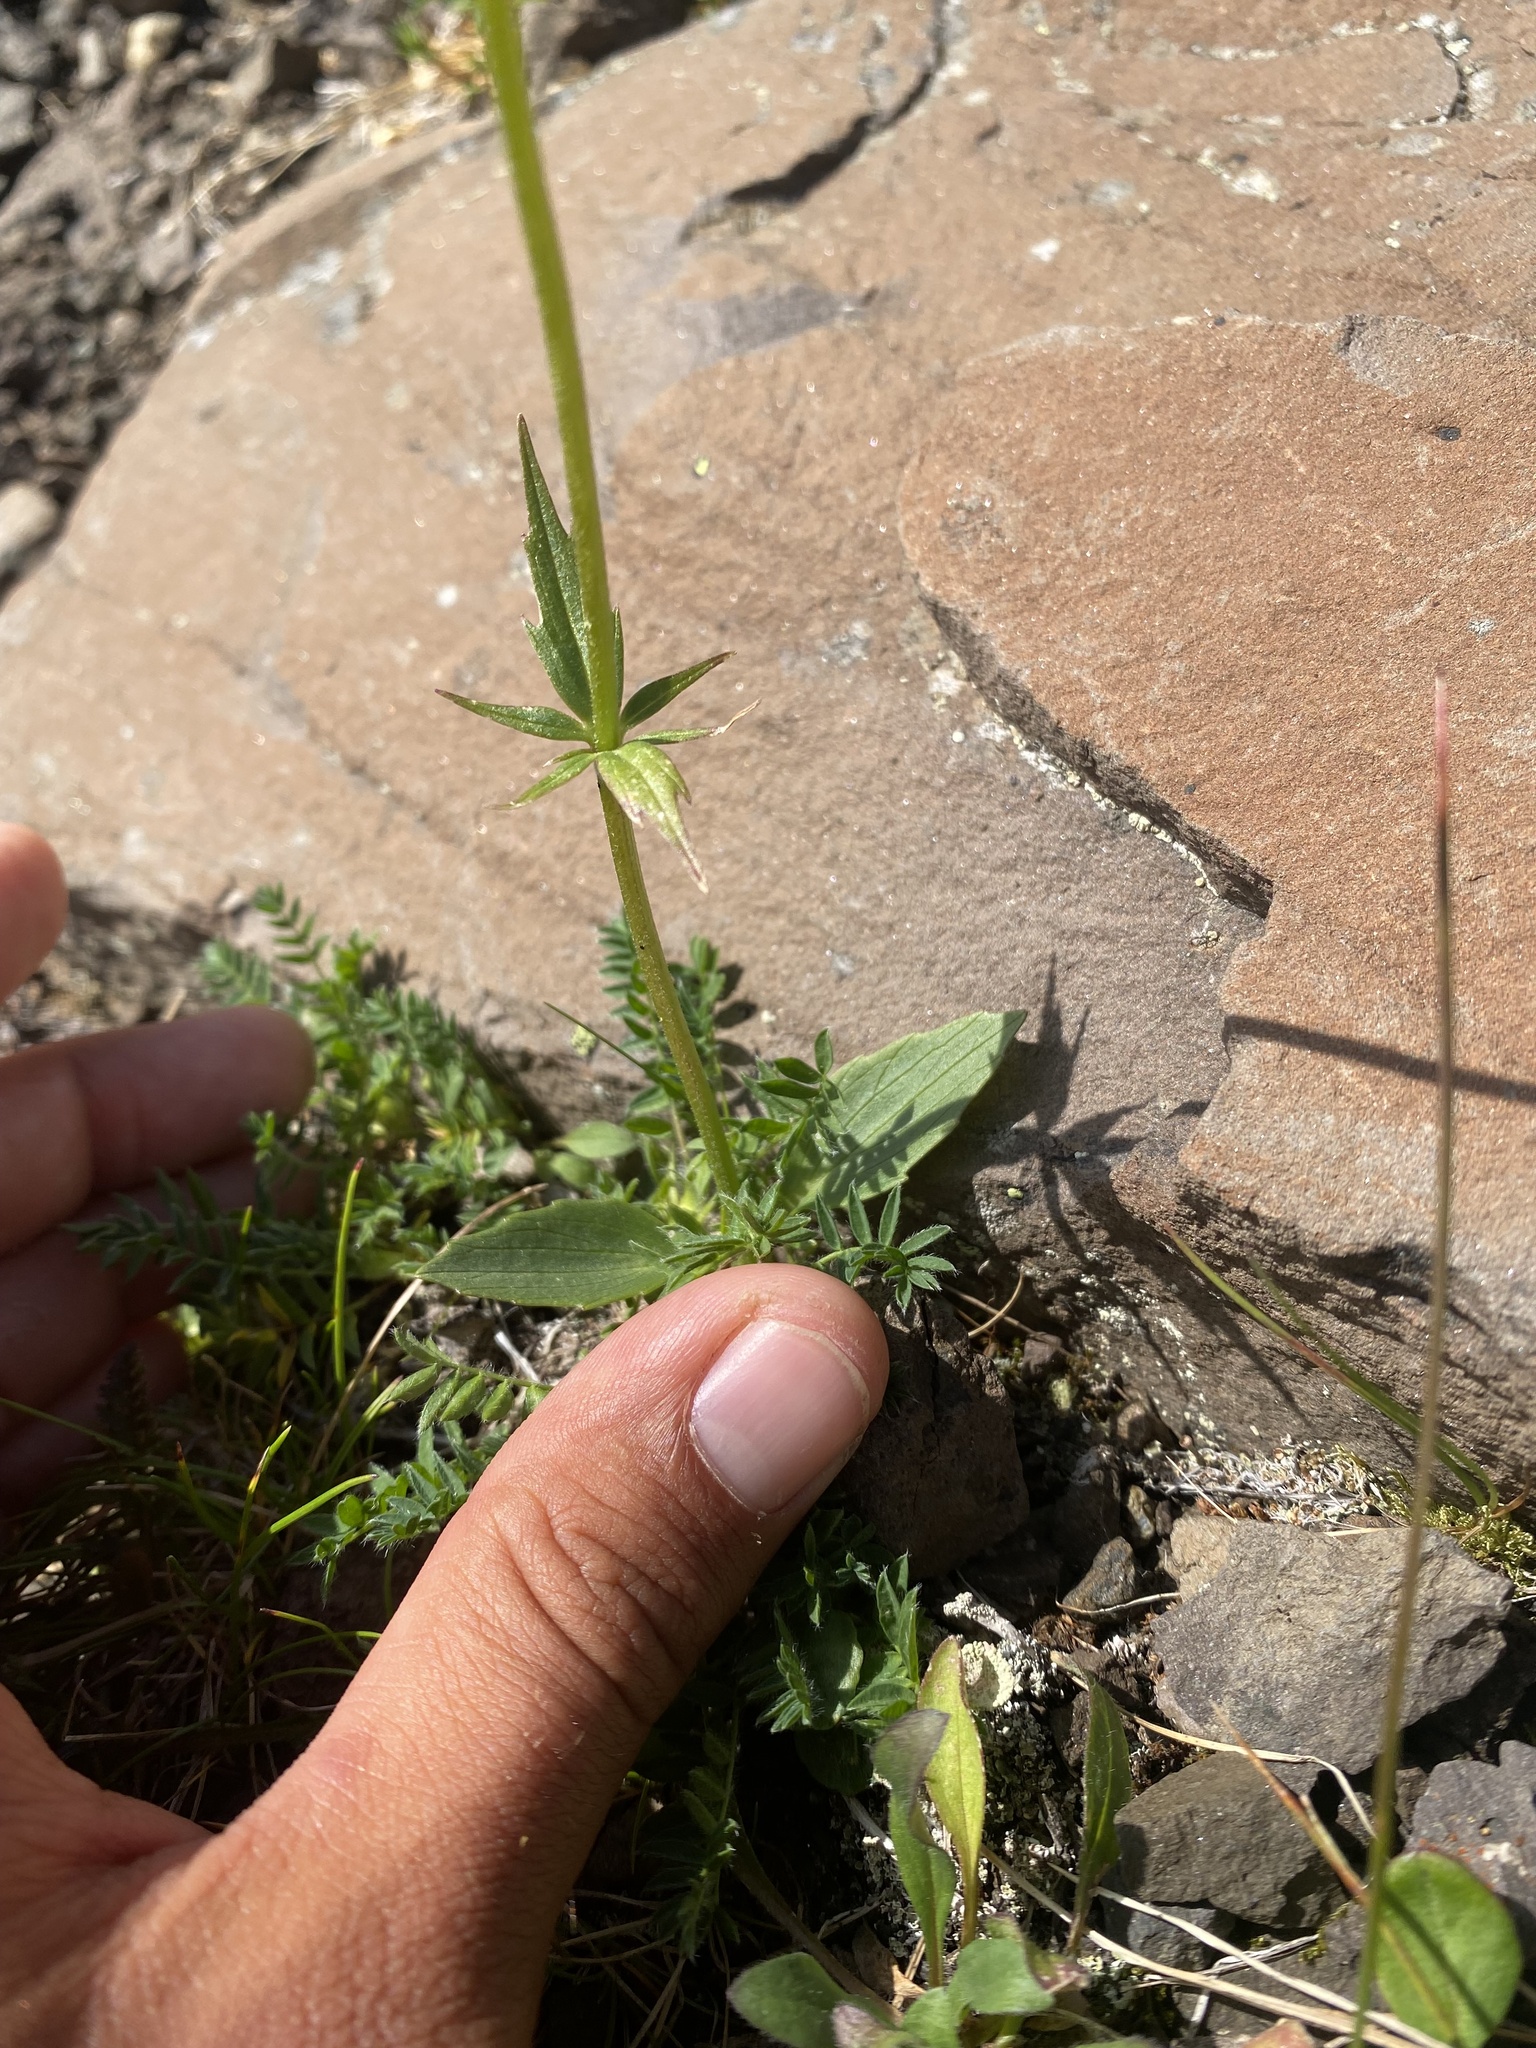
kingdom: Plantae
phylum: Tracheophyta
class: Magnoliopsida
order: Dipsacales
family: Caprifoliaceae
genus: Valeriana
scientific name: Valeriana capitata
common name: Capitate valerian
